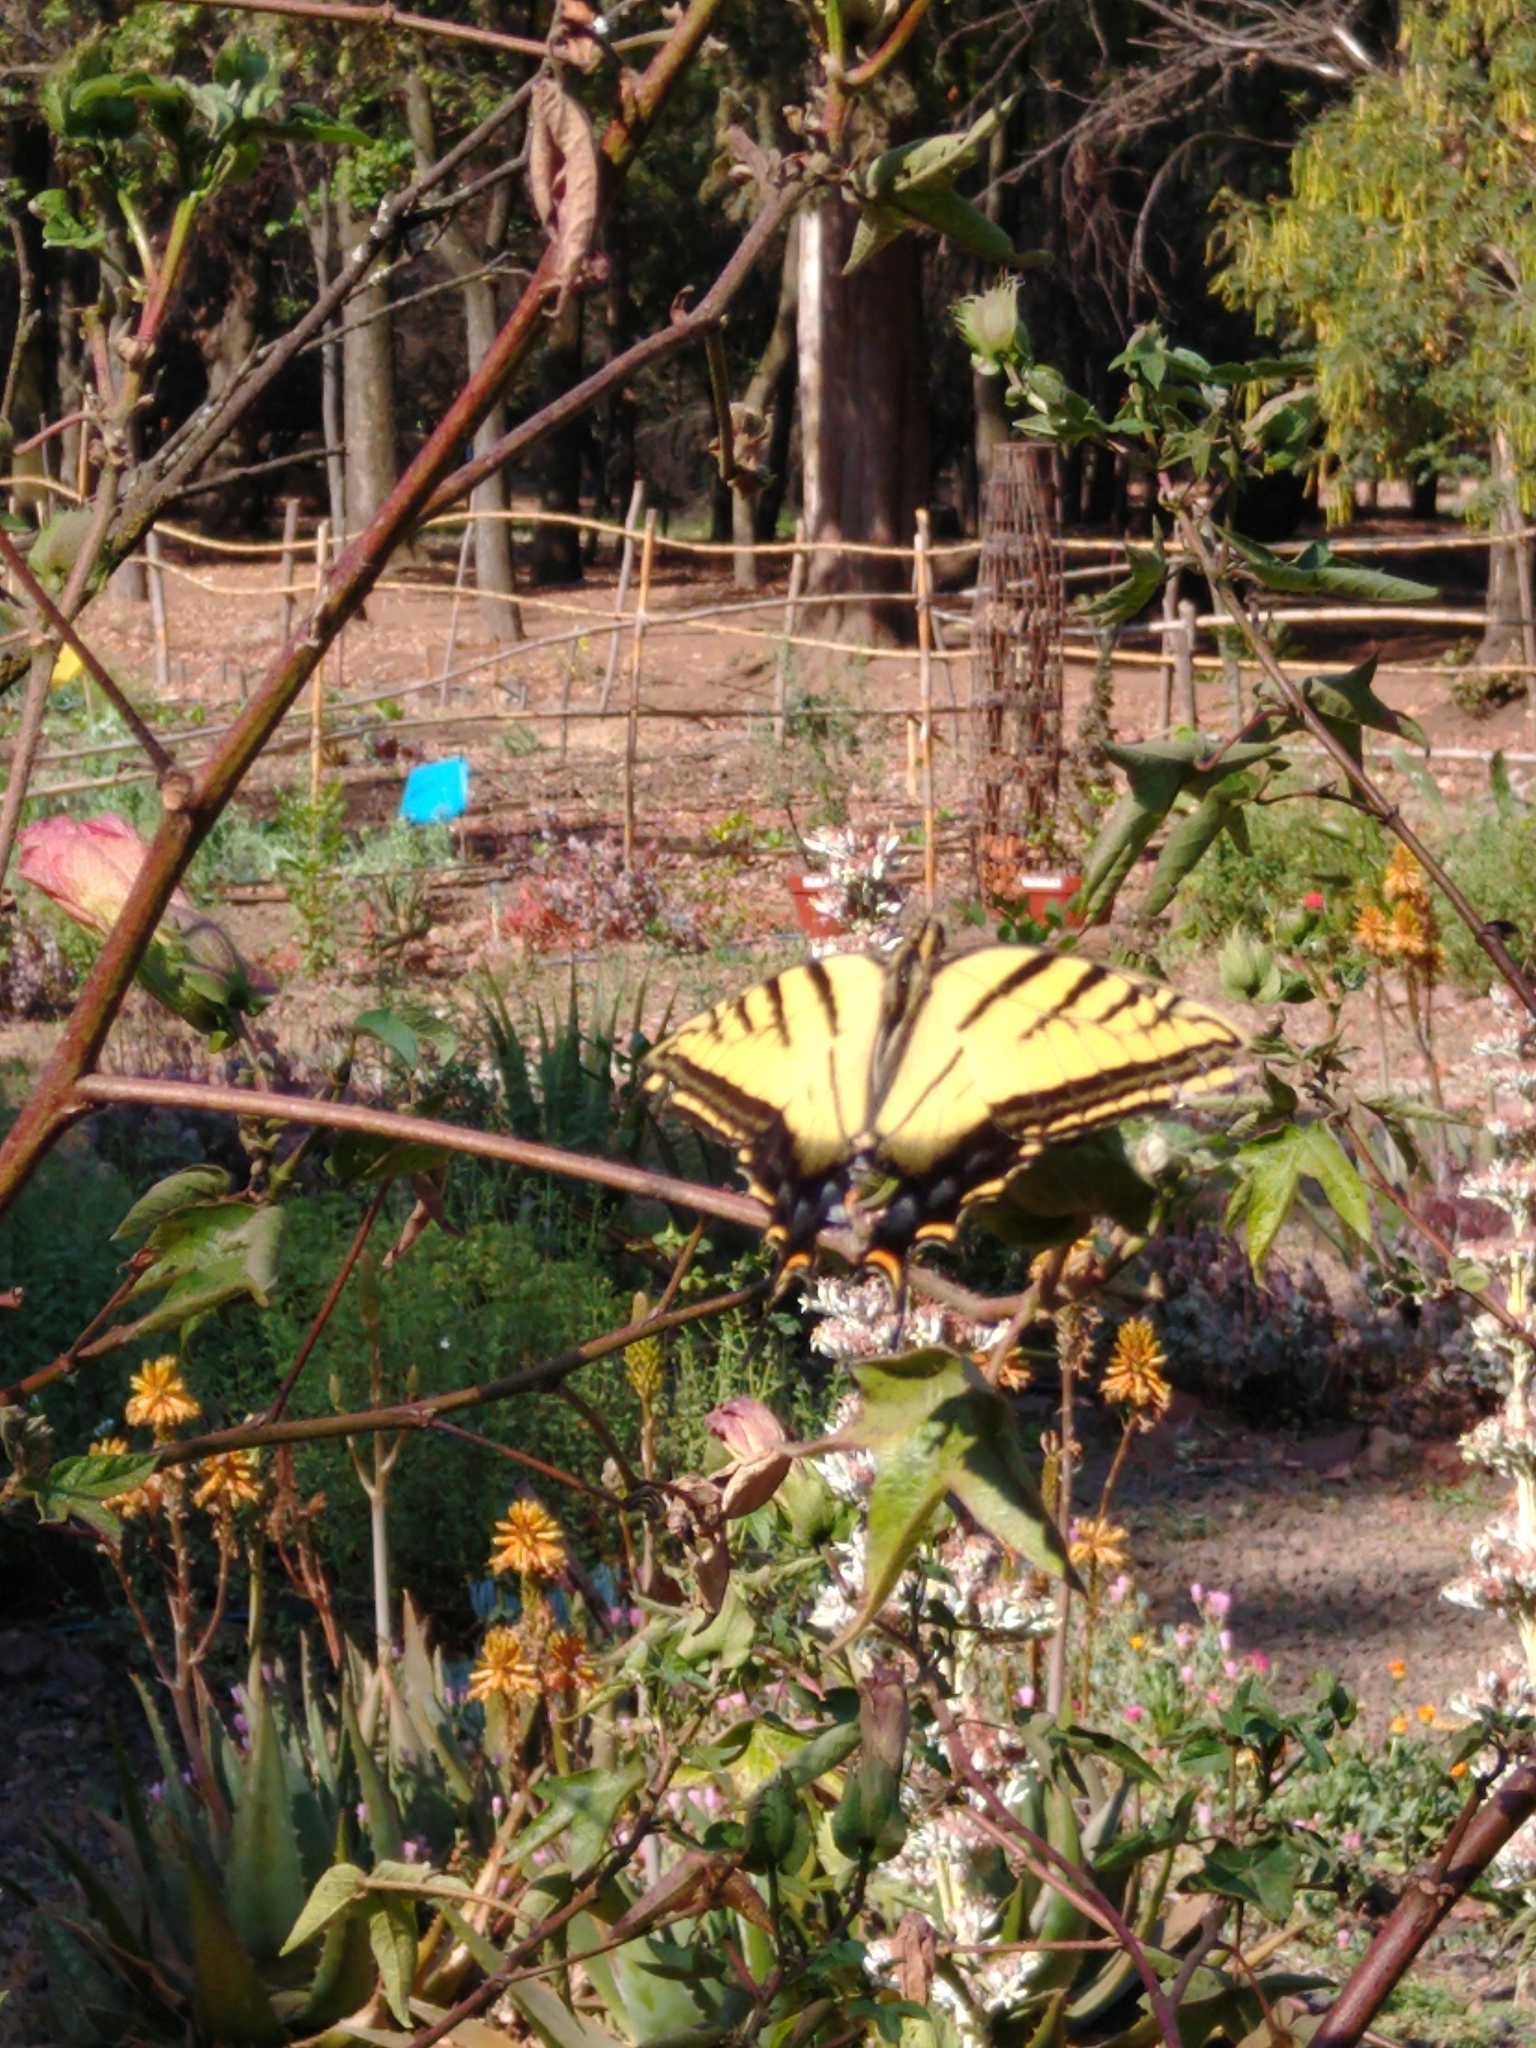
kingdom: Animalia
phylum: Arthropoda
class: Insecta
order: Lepidoptera
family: Papilionidae
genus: Papilio
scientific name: Papilio multicaudata
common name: Two-tailed tiger swallowtail
